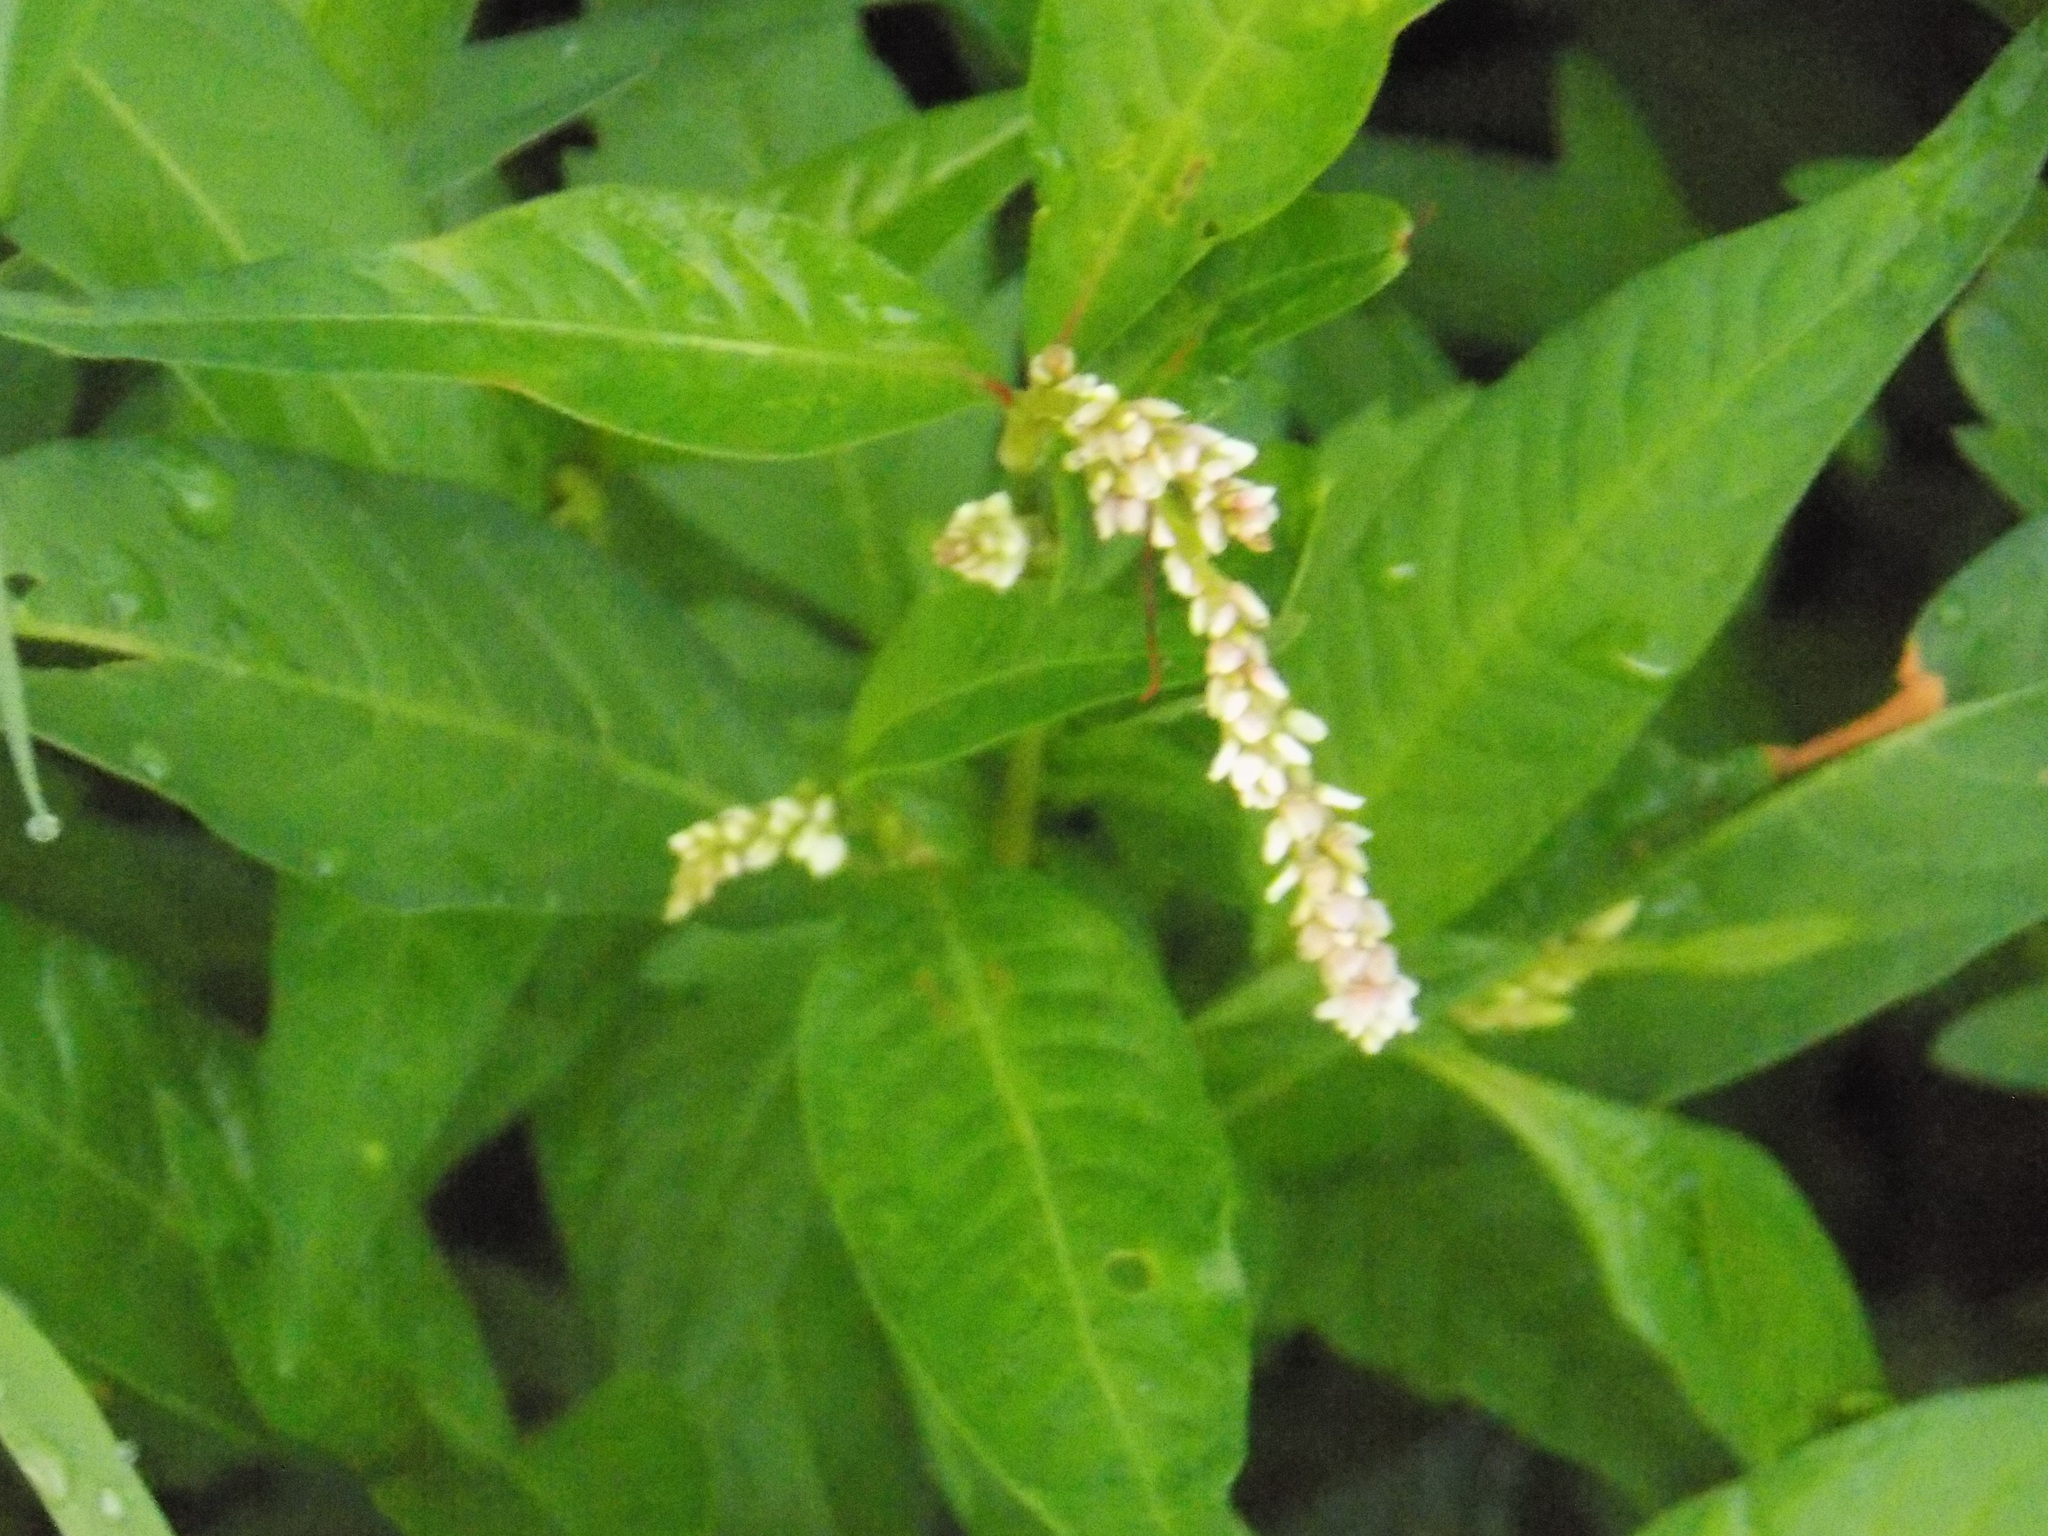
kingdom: Plantae
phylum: Tracheophyta
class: Magnoliopsida
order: Caryophyllales
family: Polygonaceae
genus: Persicaria
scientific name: Persicaria lapathifolia
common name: Curlytop knotweed
